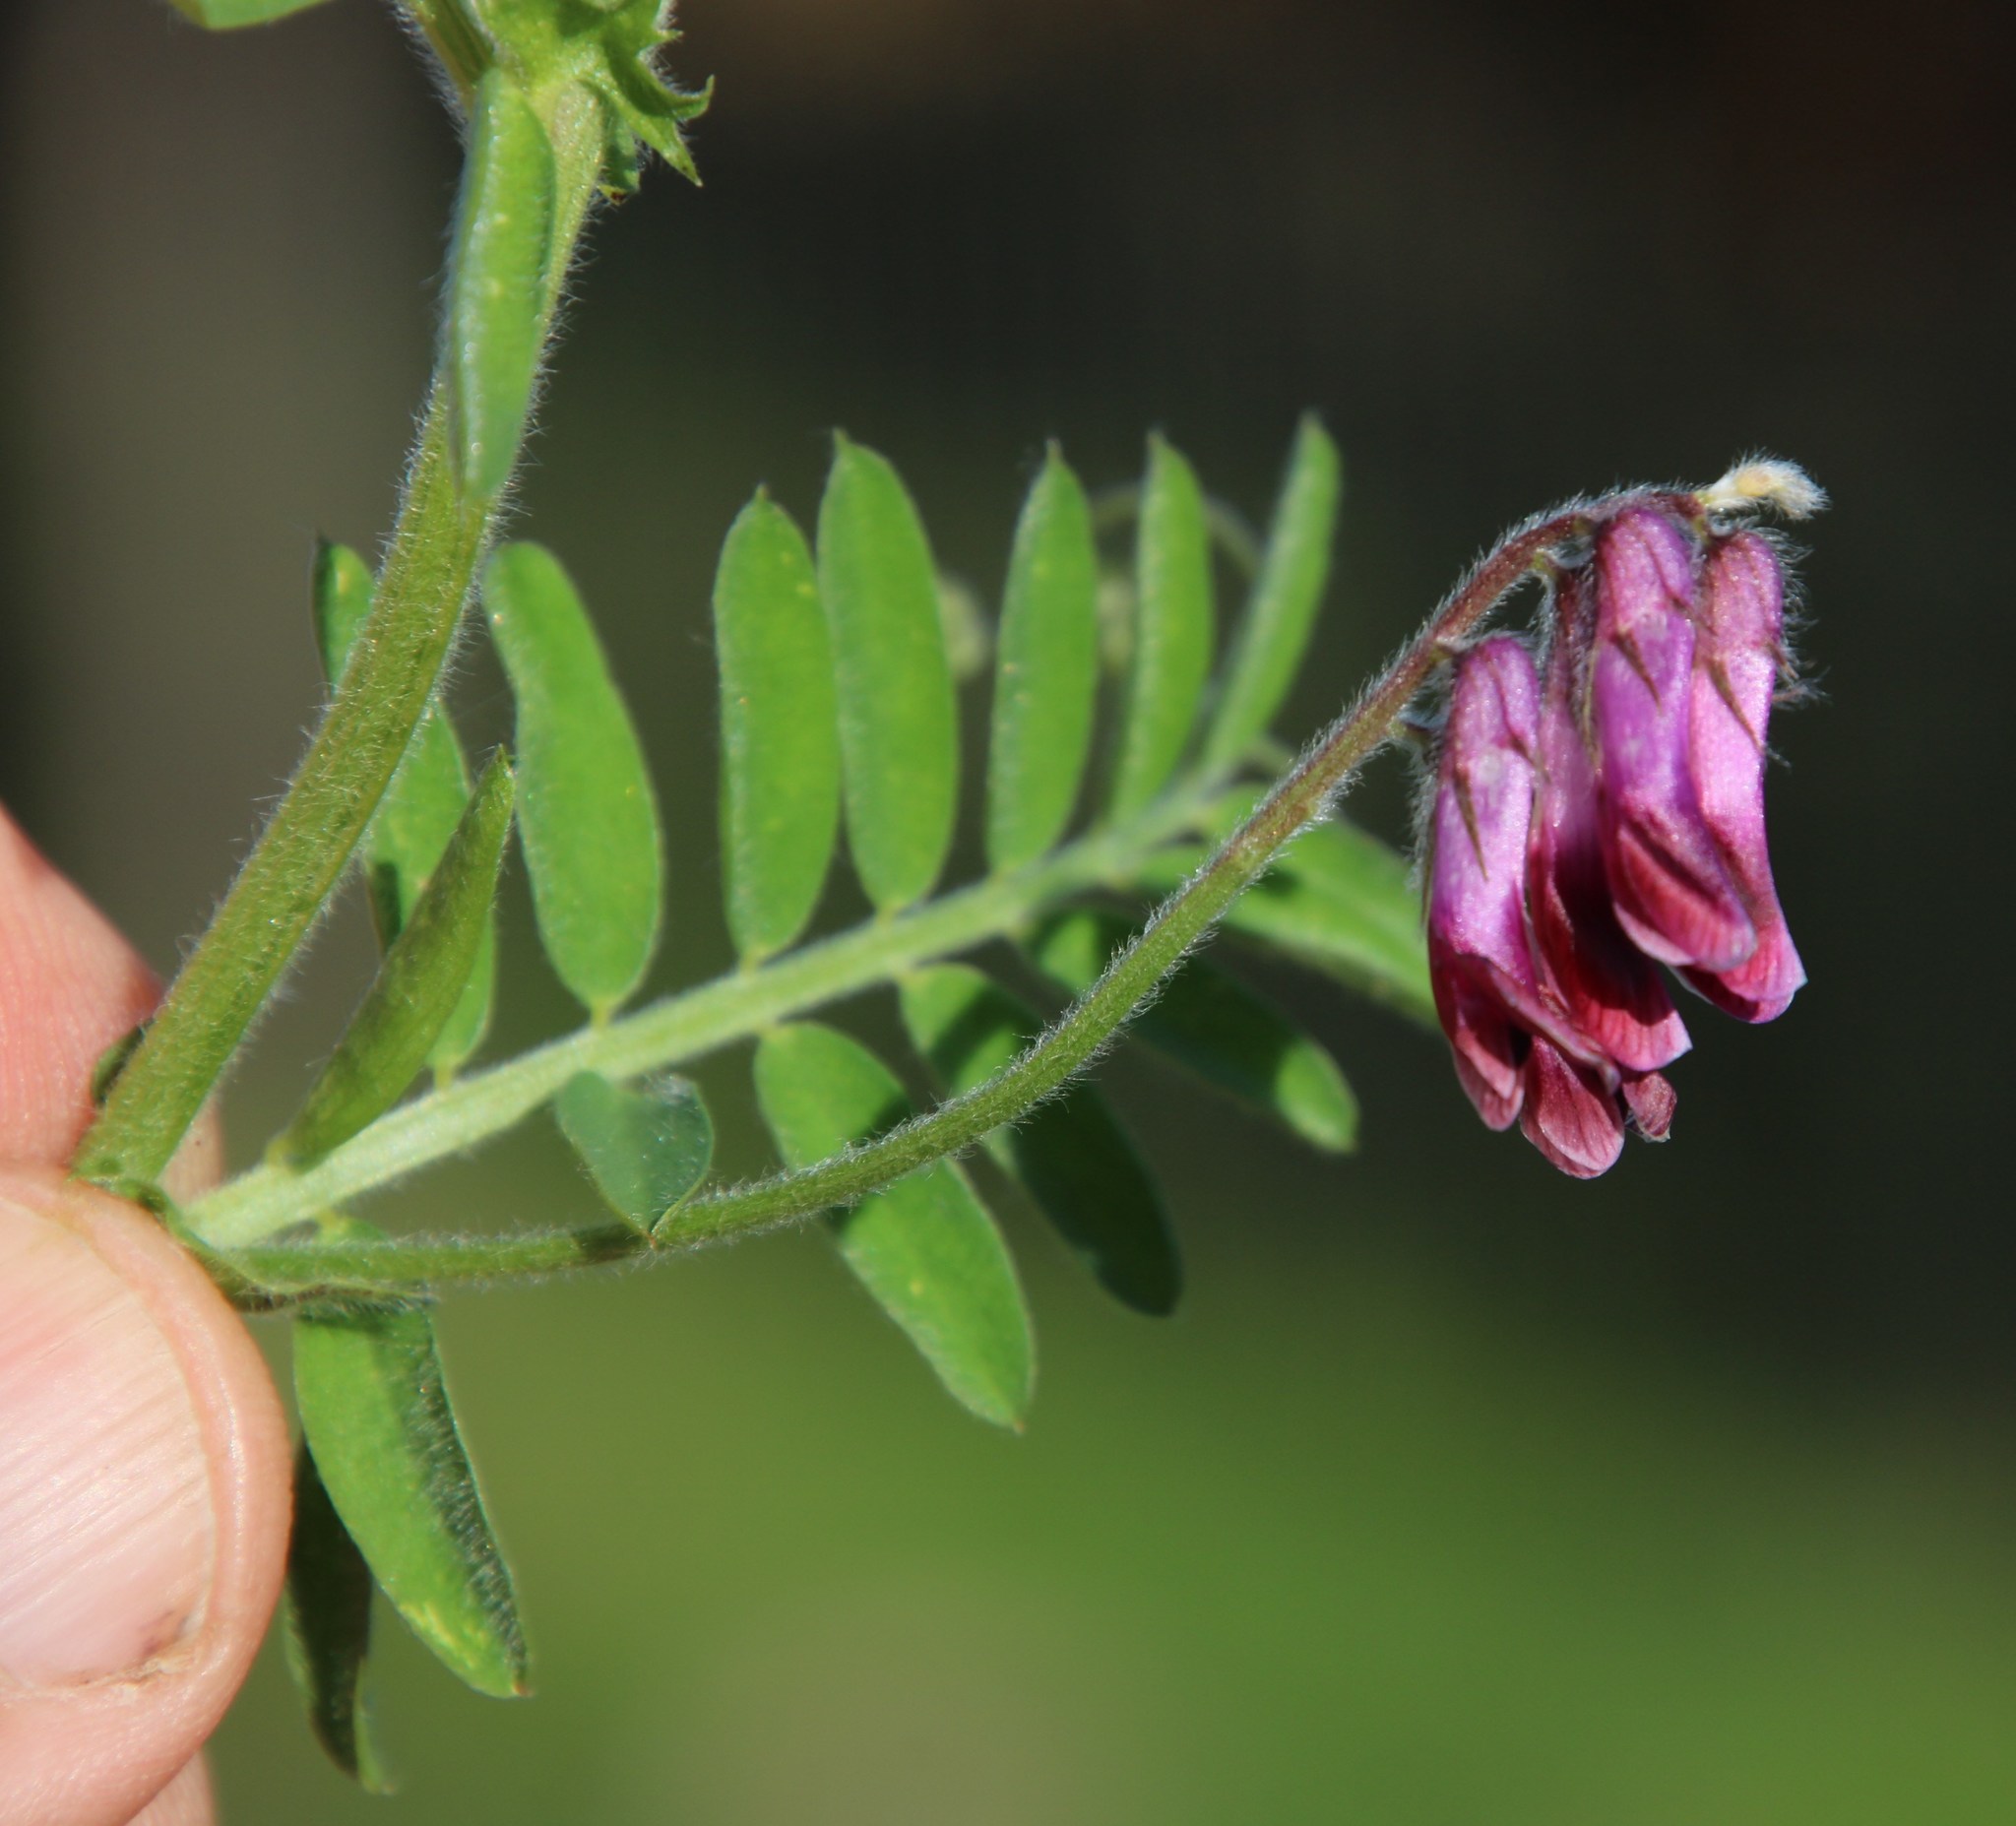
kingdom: Plantae
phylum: Tracheophyta
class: Magnoliopsida
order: Fabales
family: Fabaceae
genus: Vicia
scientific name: Vicia benghalensis
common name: Purple vetch
